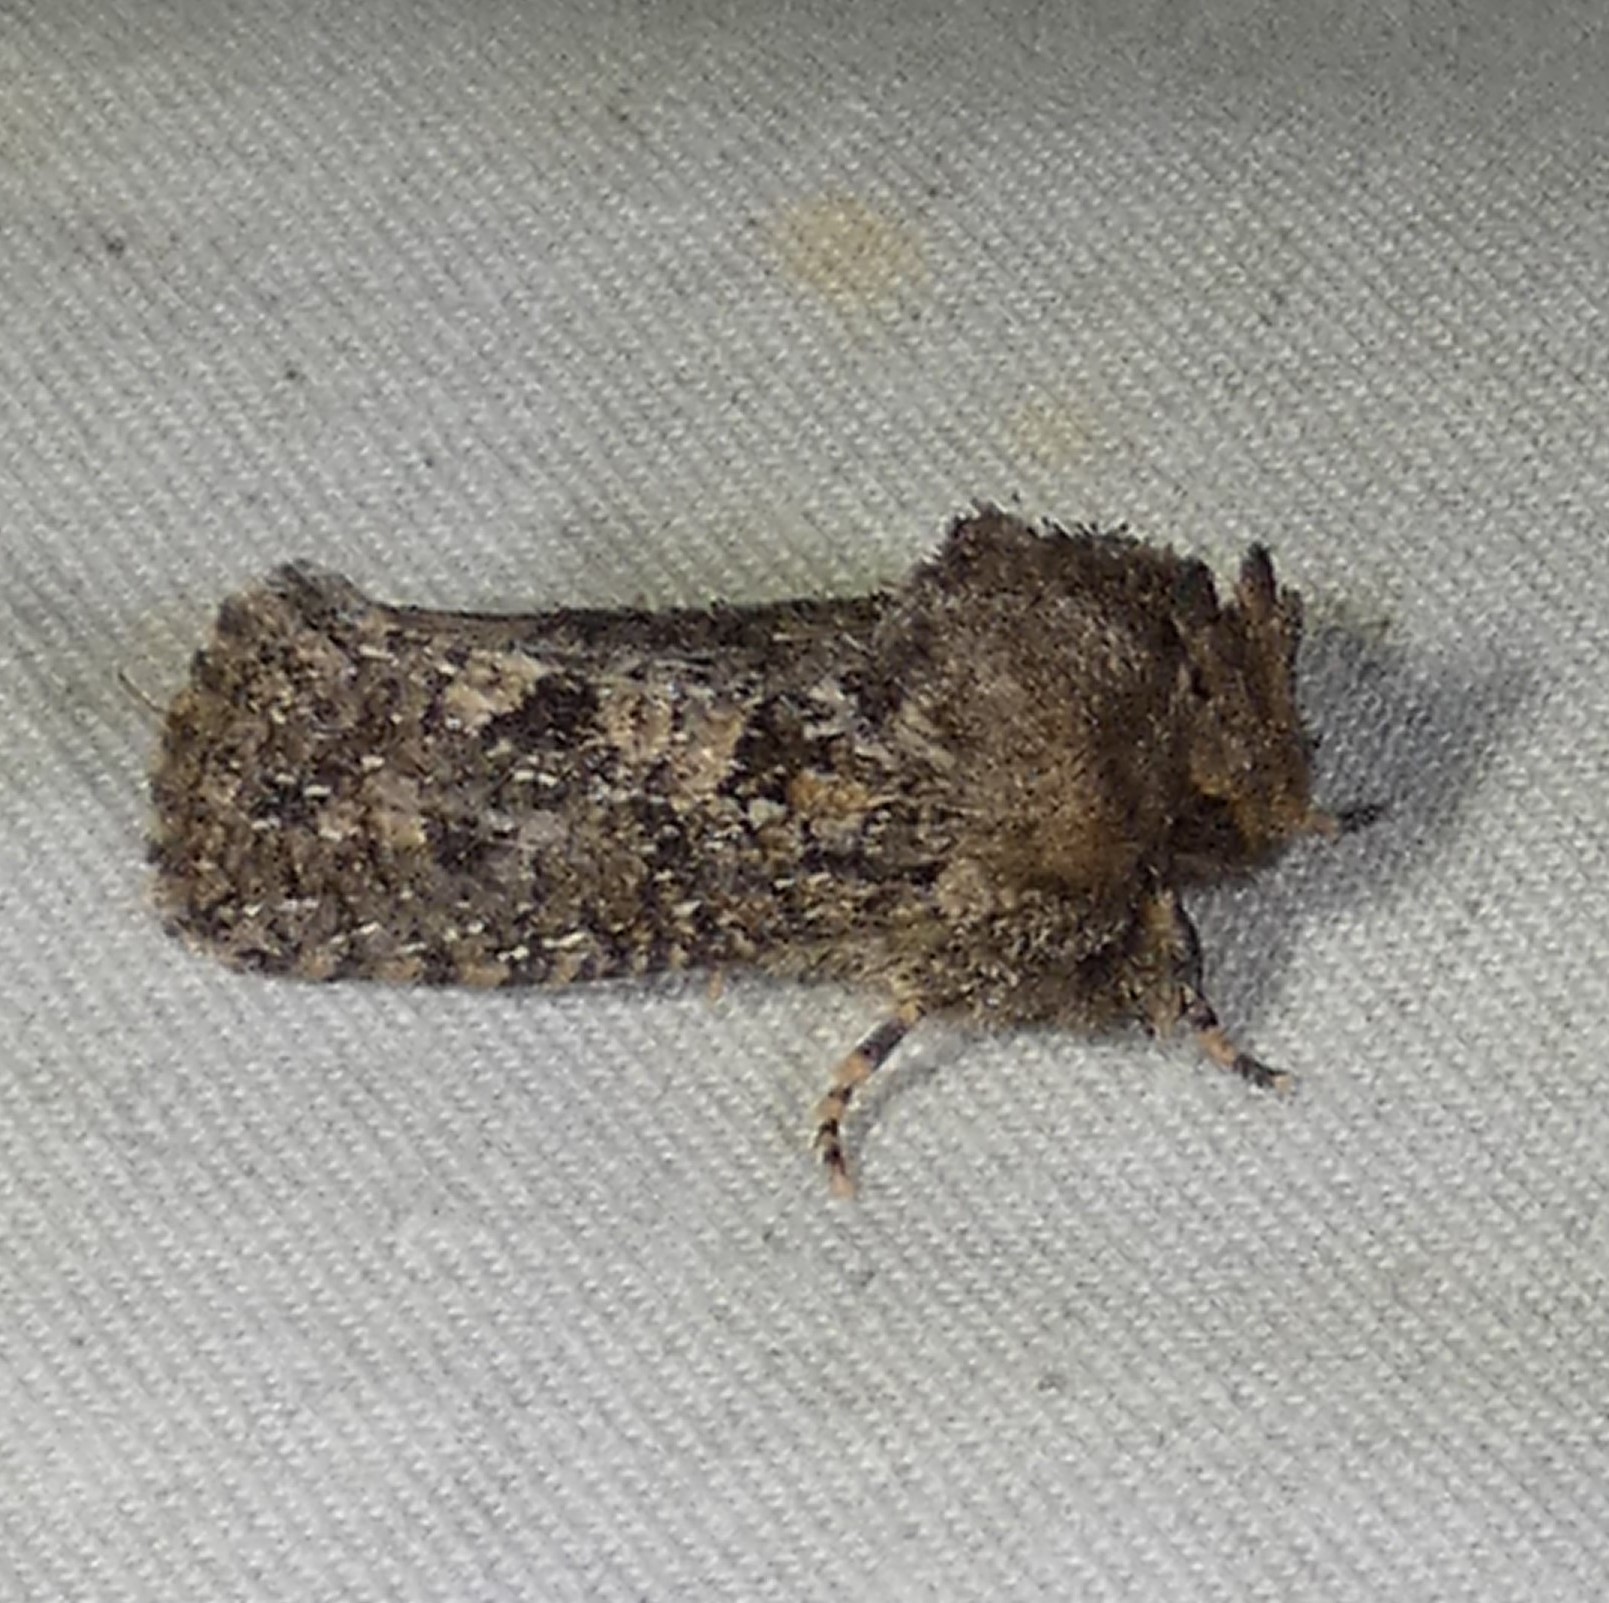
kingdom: Animalia
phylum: Arthropoda
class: Insecta
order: Lepidoptera
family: Tineidae
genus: Acrolophus
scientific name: Acrolophus arcanella
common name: Arcane grass tubeworm moth
